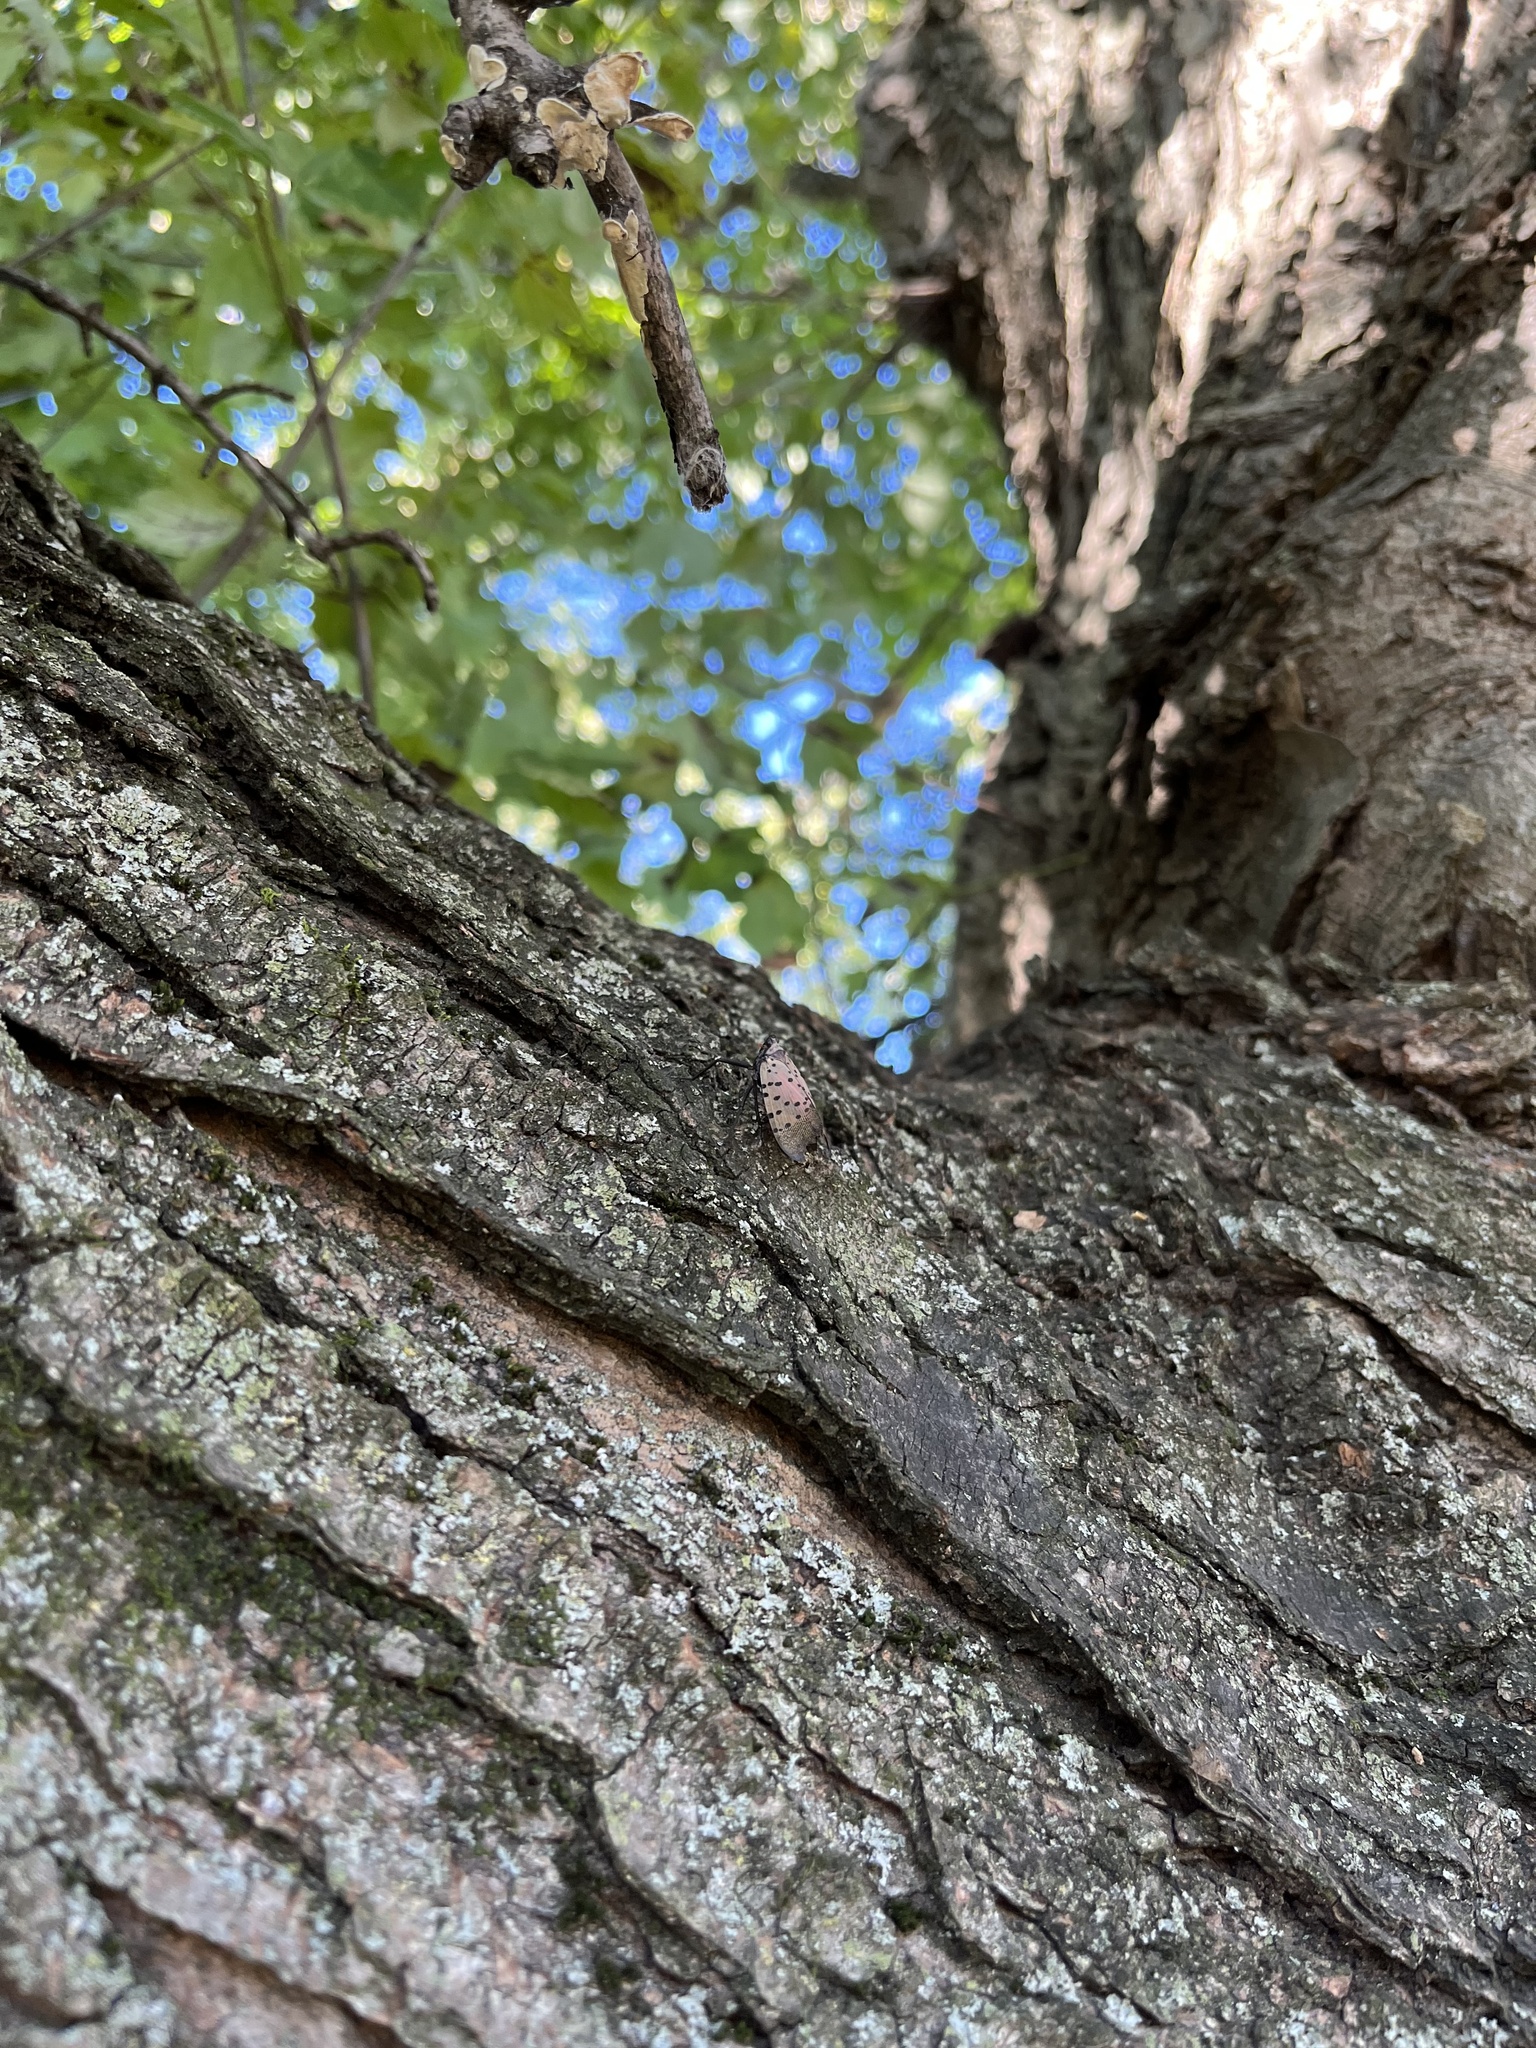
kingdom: Animalia
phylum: Arthropoda
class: Insecta
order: Hemiptera
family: Fulgoridae
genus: Lycorma
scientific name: Lycorma delicatula
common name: Spotted lanternfly
